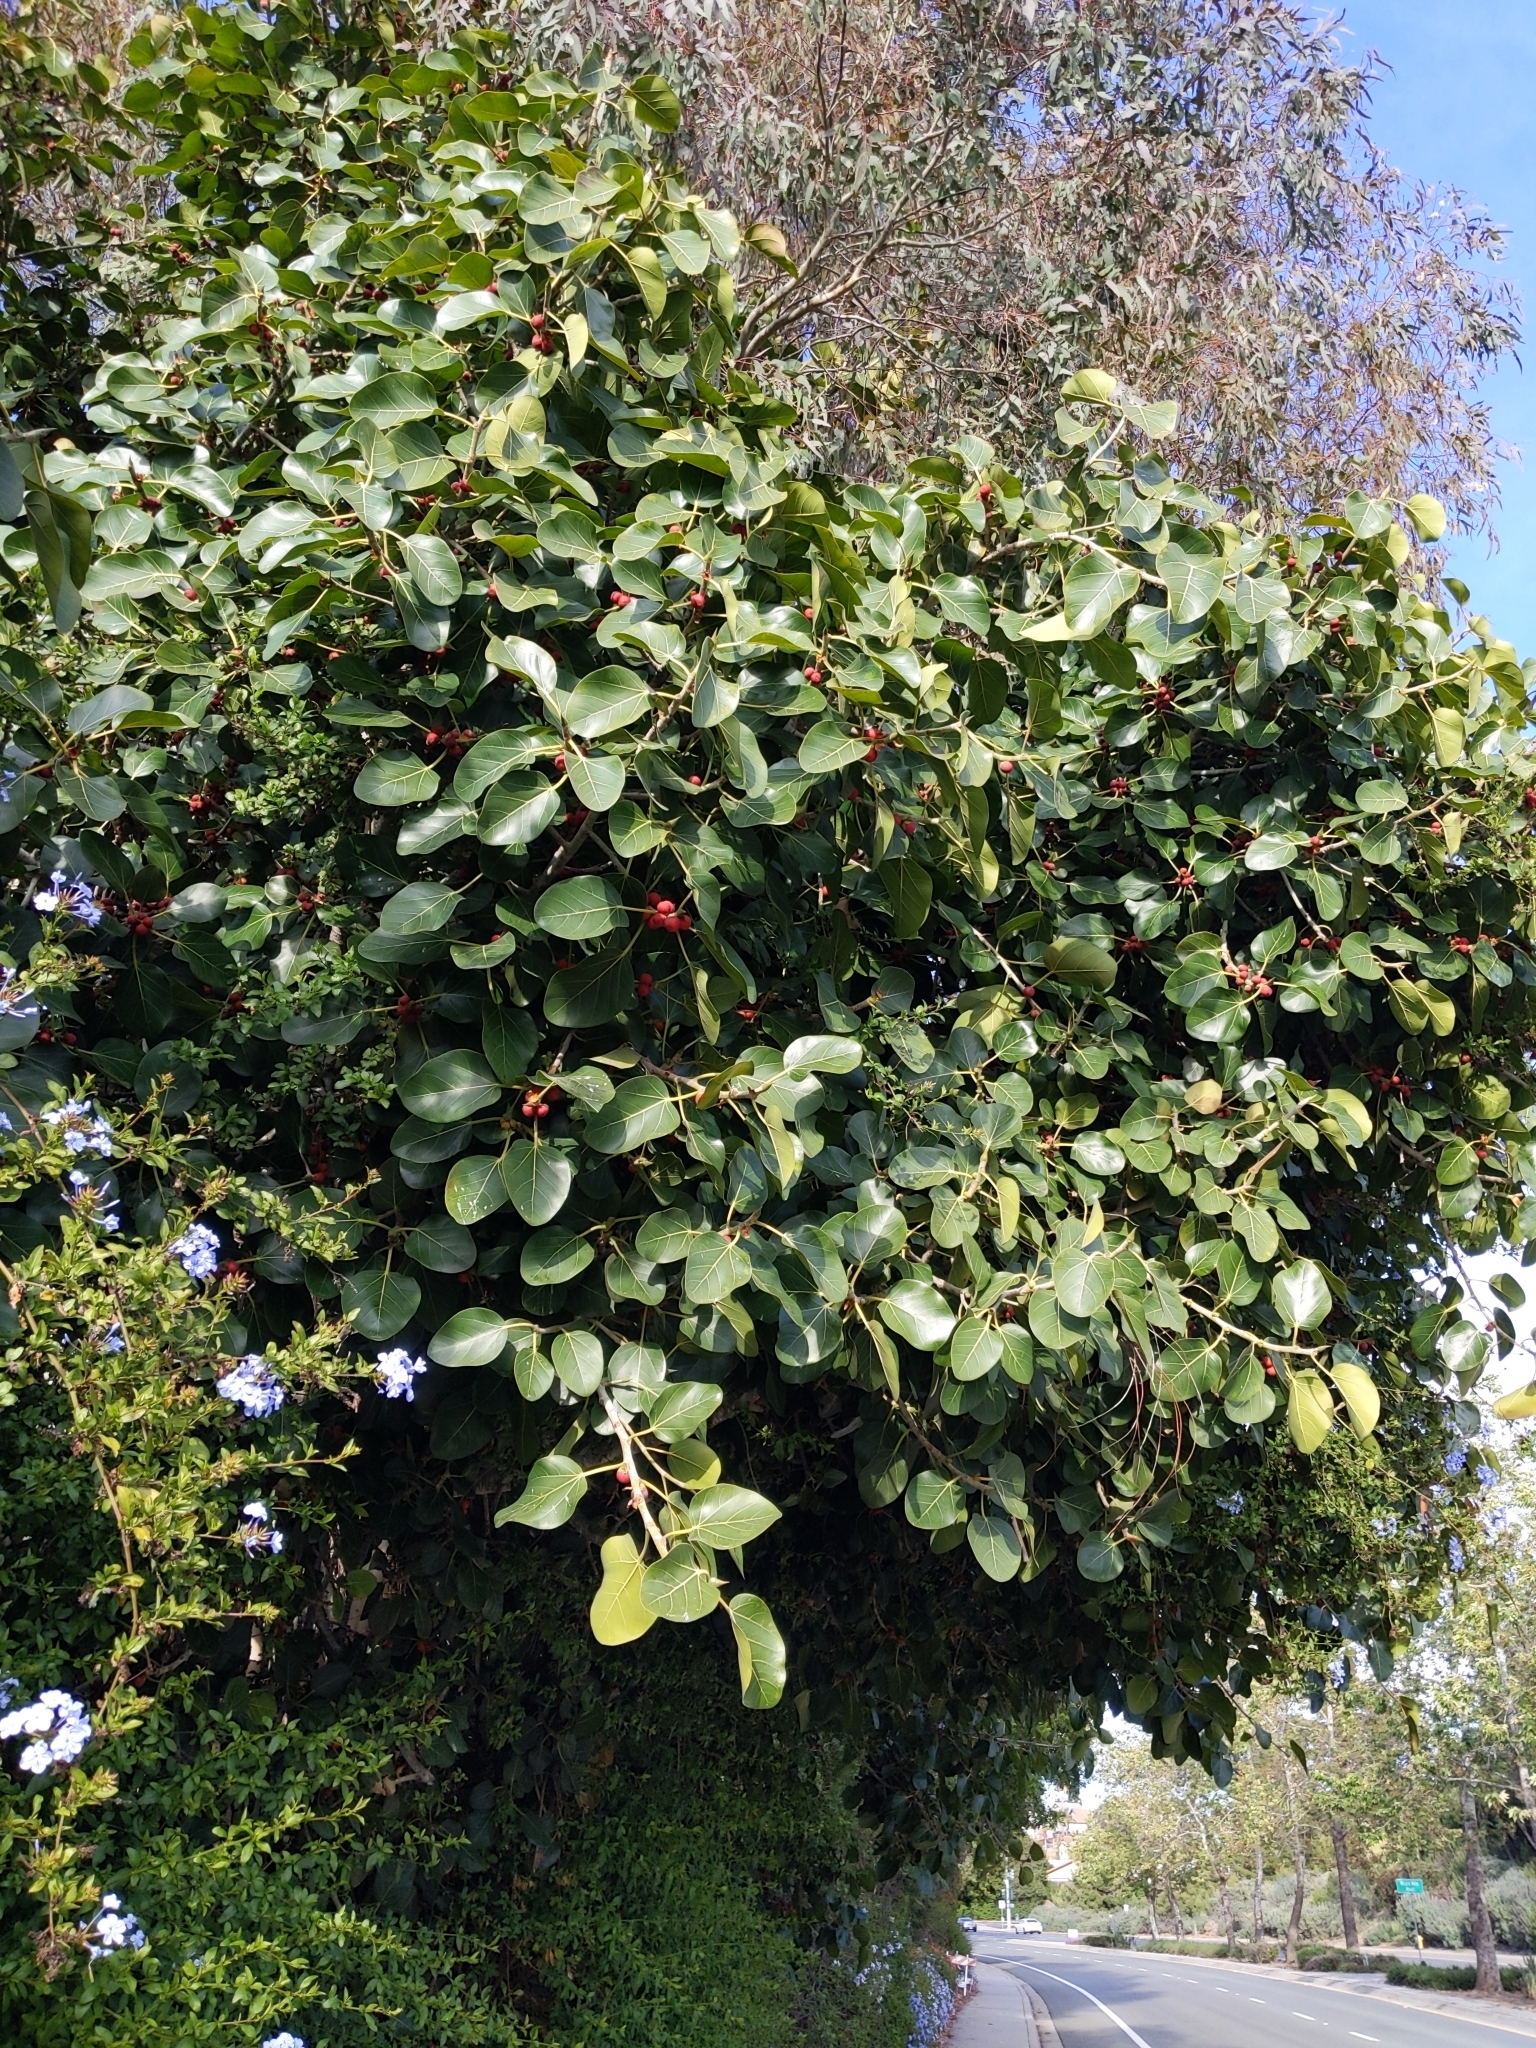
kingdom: Plantae
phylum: Tracheophyta
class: Magnoliopsida
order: Rosales
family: Moraceae
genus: Ficus
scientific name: Ficus benghalensis
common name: Indian banyan
